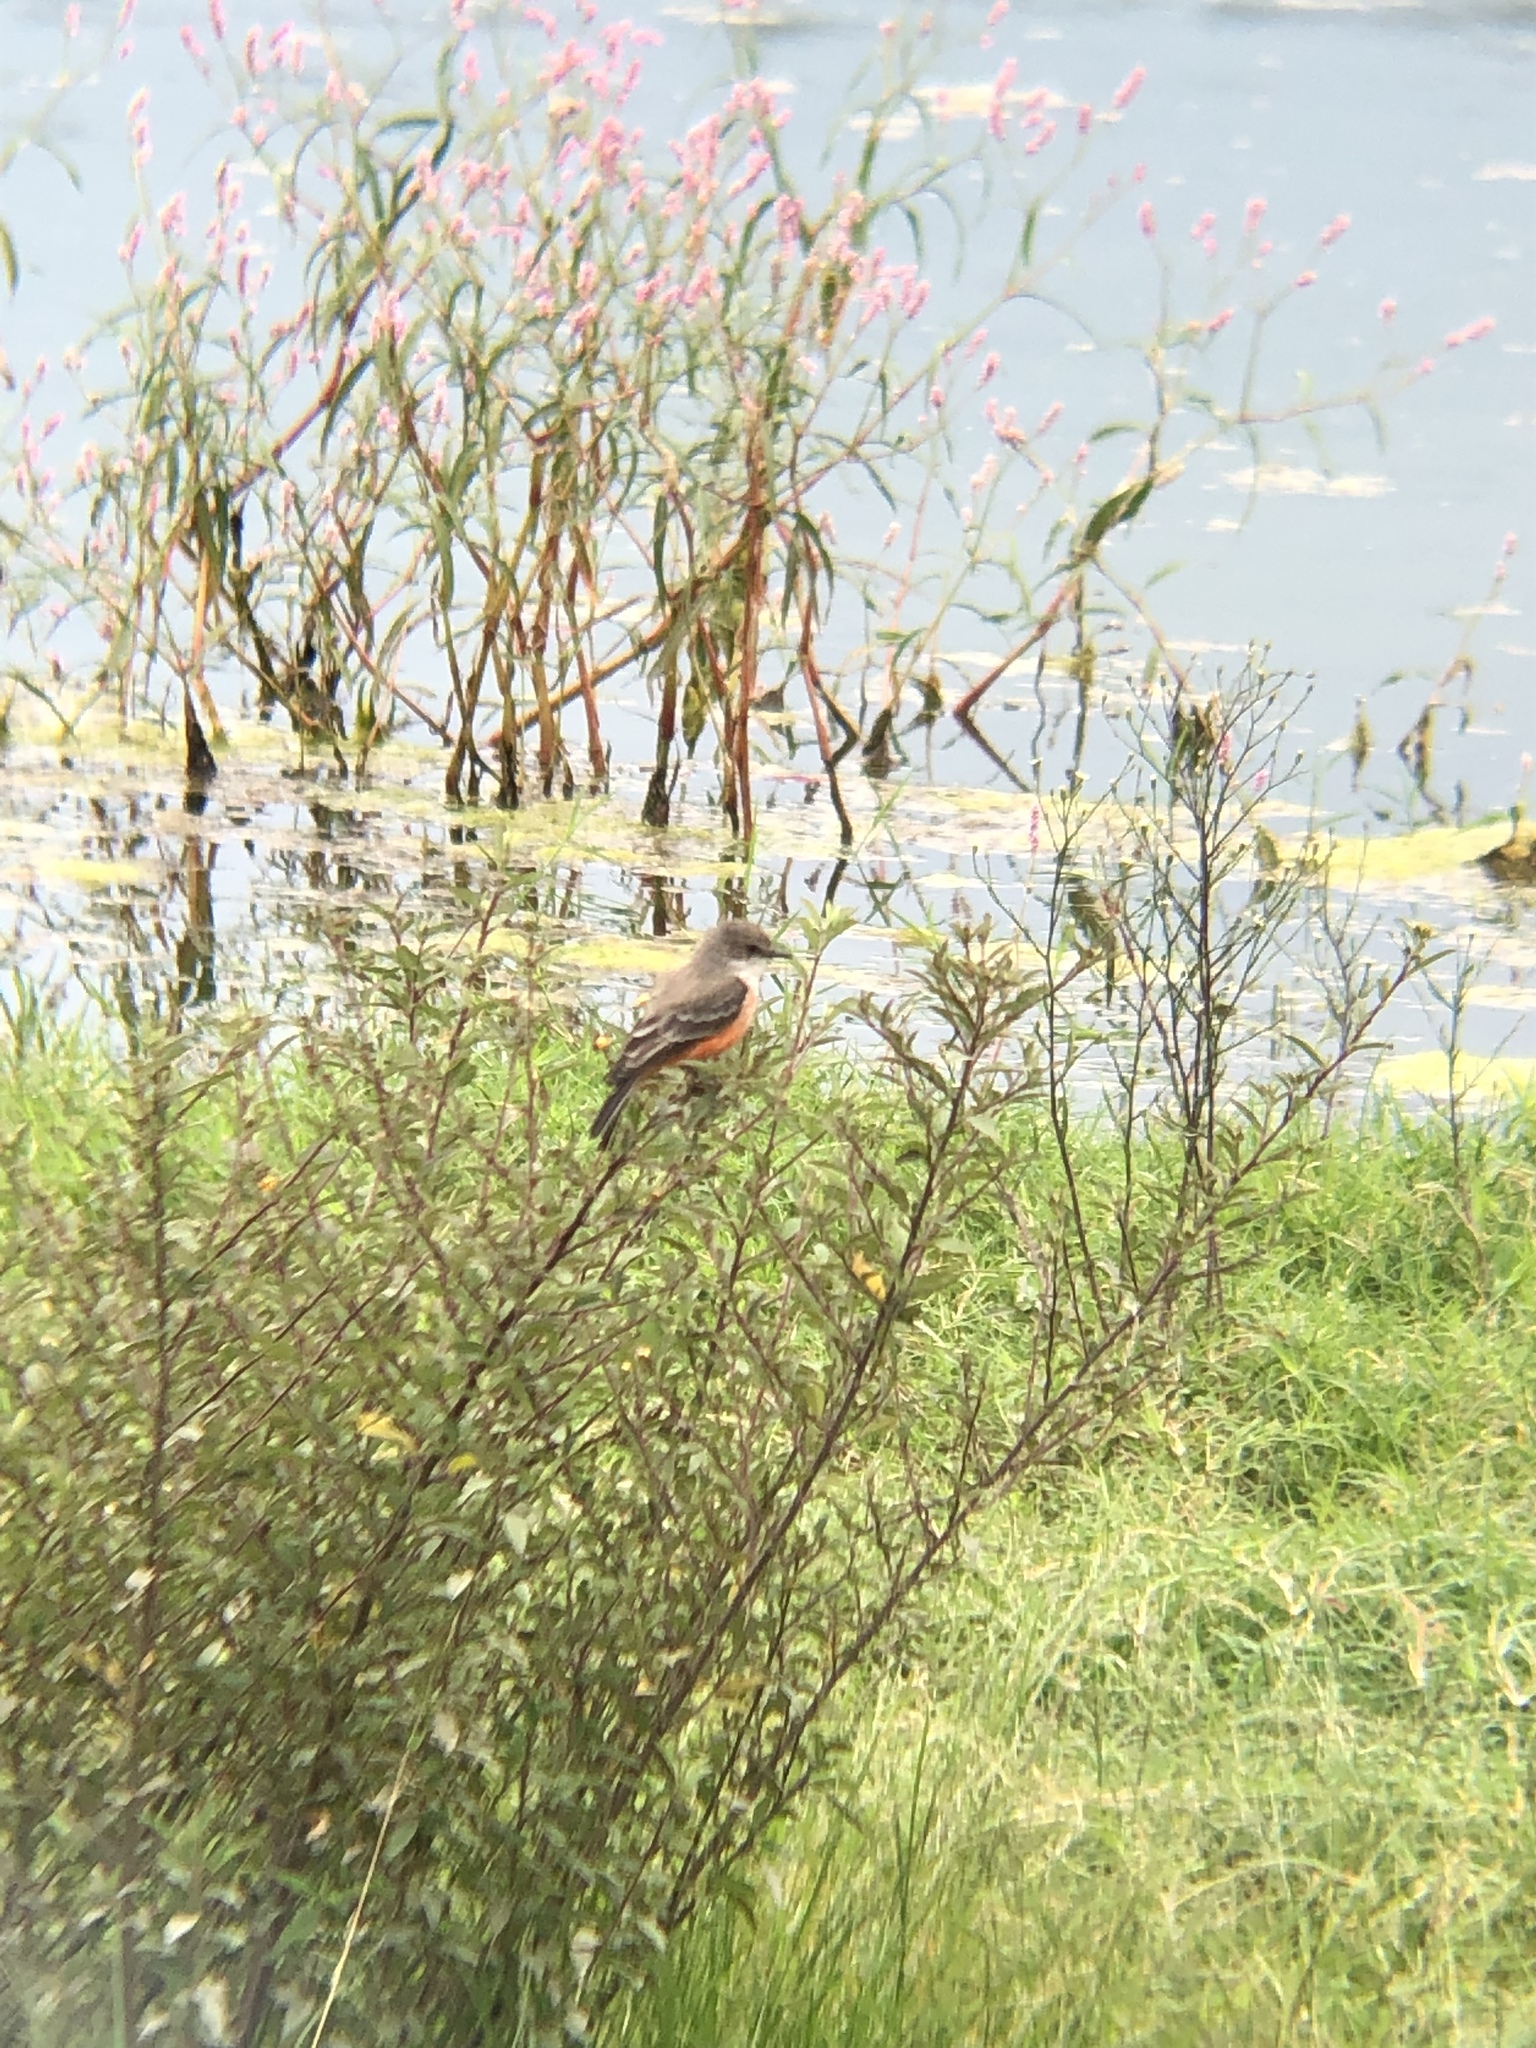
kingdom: Animalia
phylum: Chordata
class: Aves
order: Passeriformes
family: Tyrannidae
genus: Pyrocephalus
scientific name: Pyrocephalus rubinus
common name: Vermilion flycatcher
